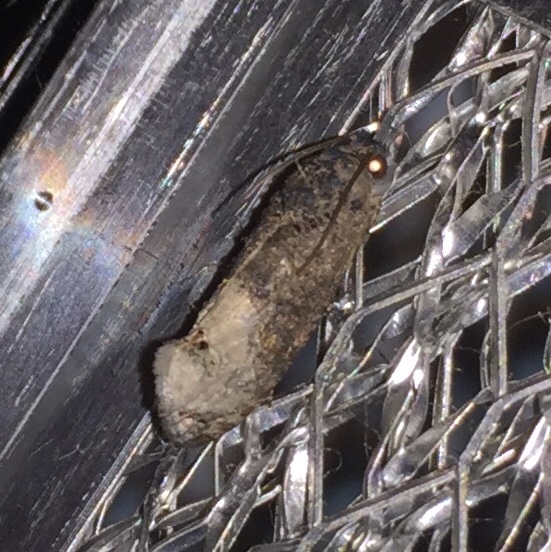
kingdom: Animalia
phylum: Arthropoda
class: Insecta
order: Lepidoptera
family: Tortricidae
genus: Ecdytolopha
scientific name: Ecdytolopha insiticiana
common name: Locust twig borer moth
